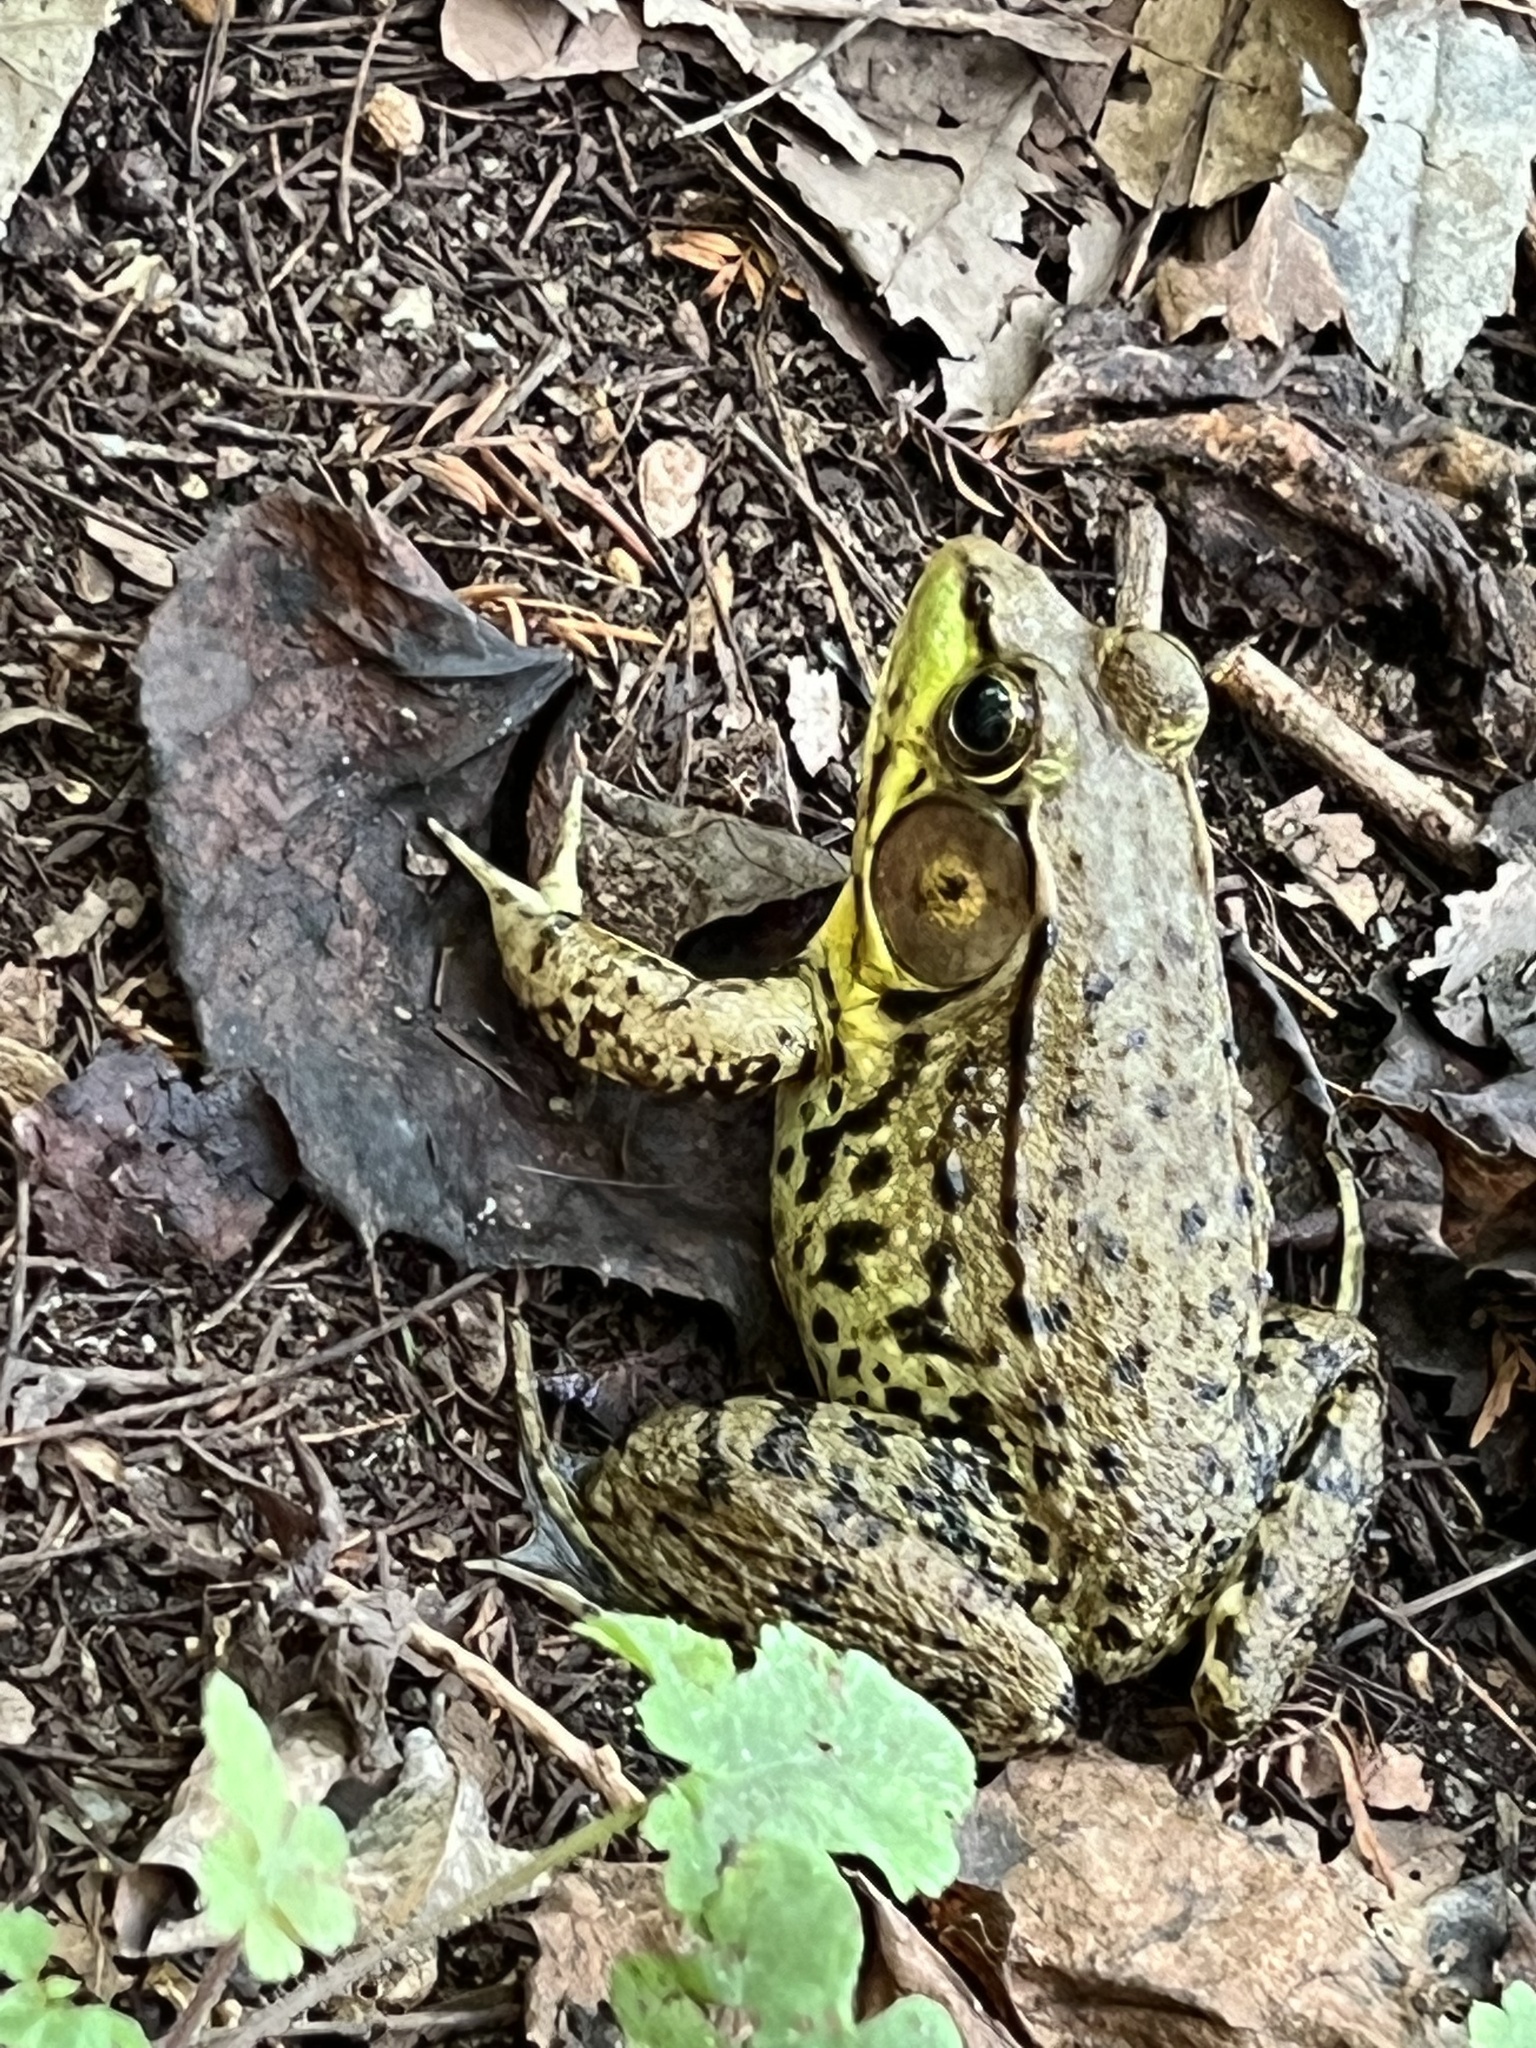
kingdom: Animalia
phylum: Chordata
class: Amphibia
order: Anura
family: Ranidae
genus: Lithobates
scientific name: Lithobates clamitans
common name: Green frog
